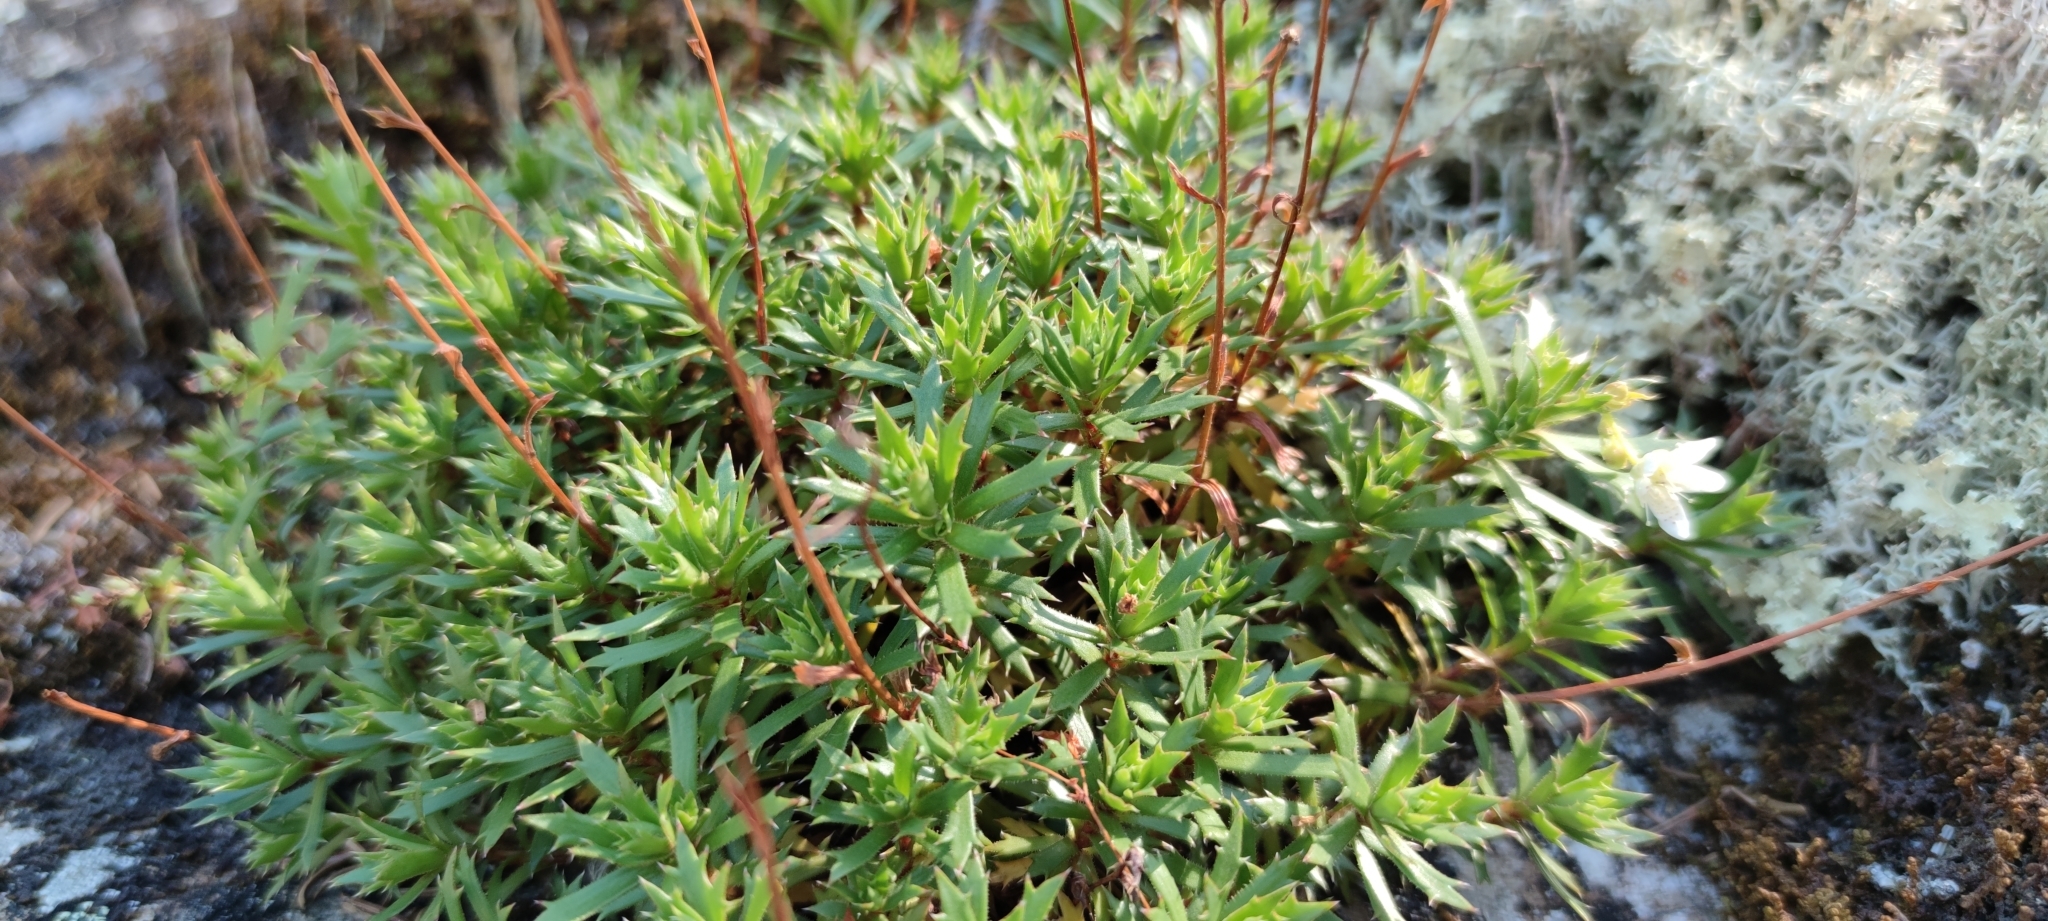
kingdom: Plantae
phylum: Tracheophyta
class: Magnoliopsida
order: Saxifragales
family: Saxifragaceae
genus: Saxifraga
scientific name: Saxifraga tricuspidata
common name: Prickly saxifrage
